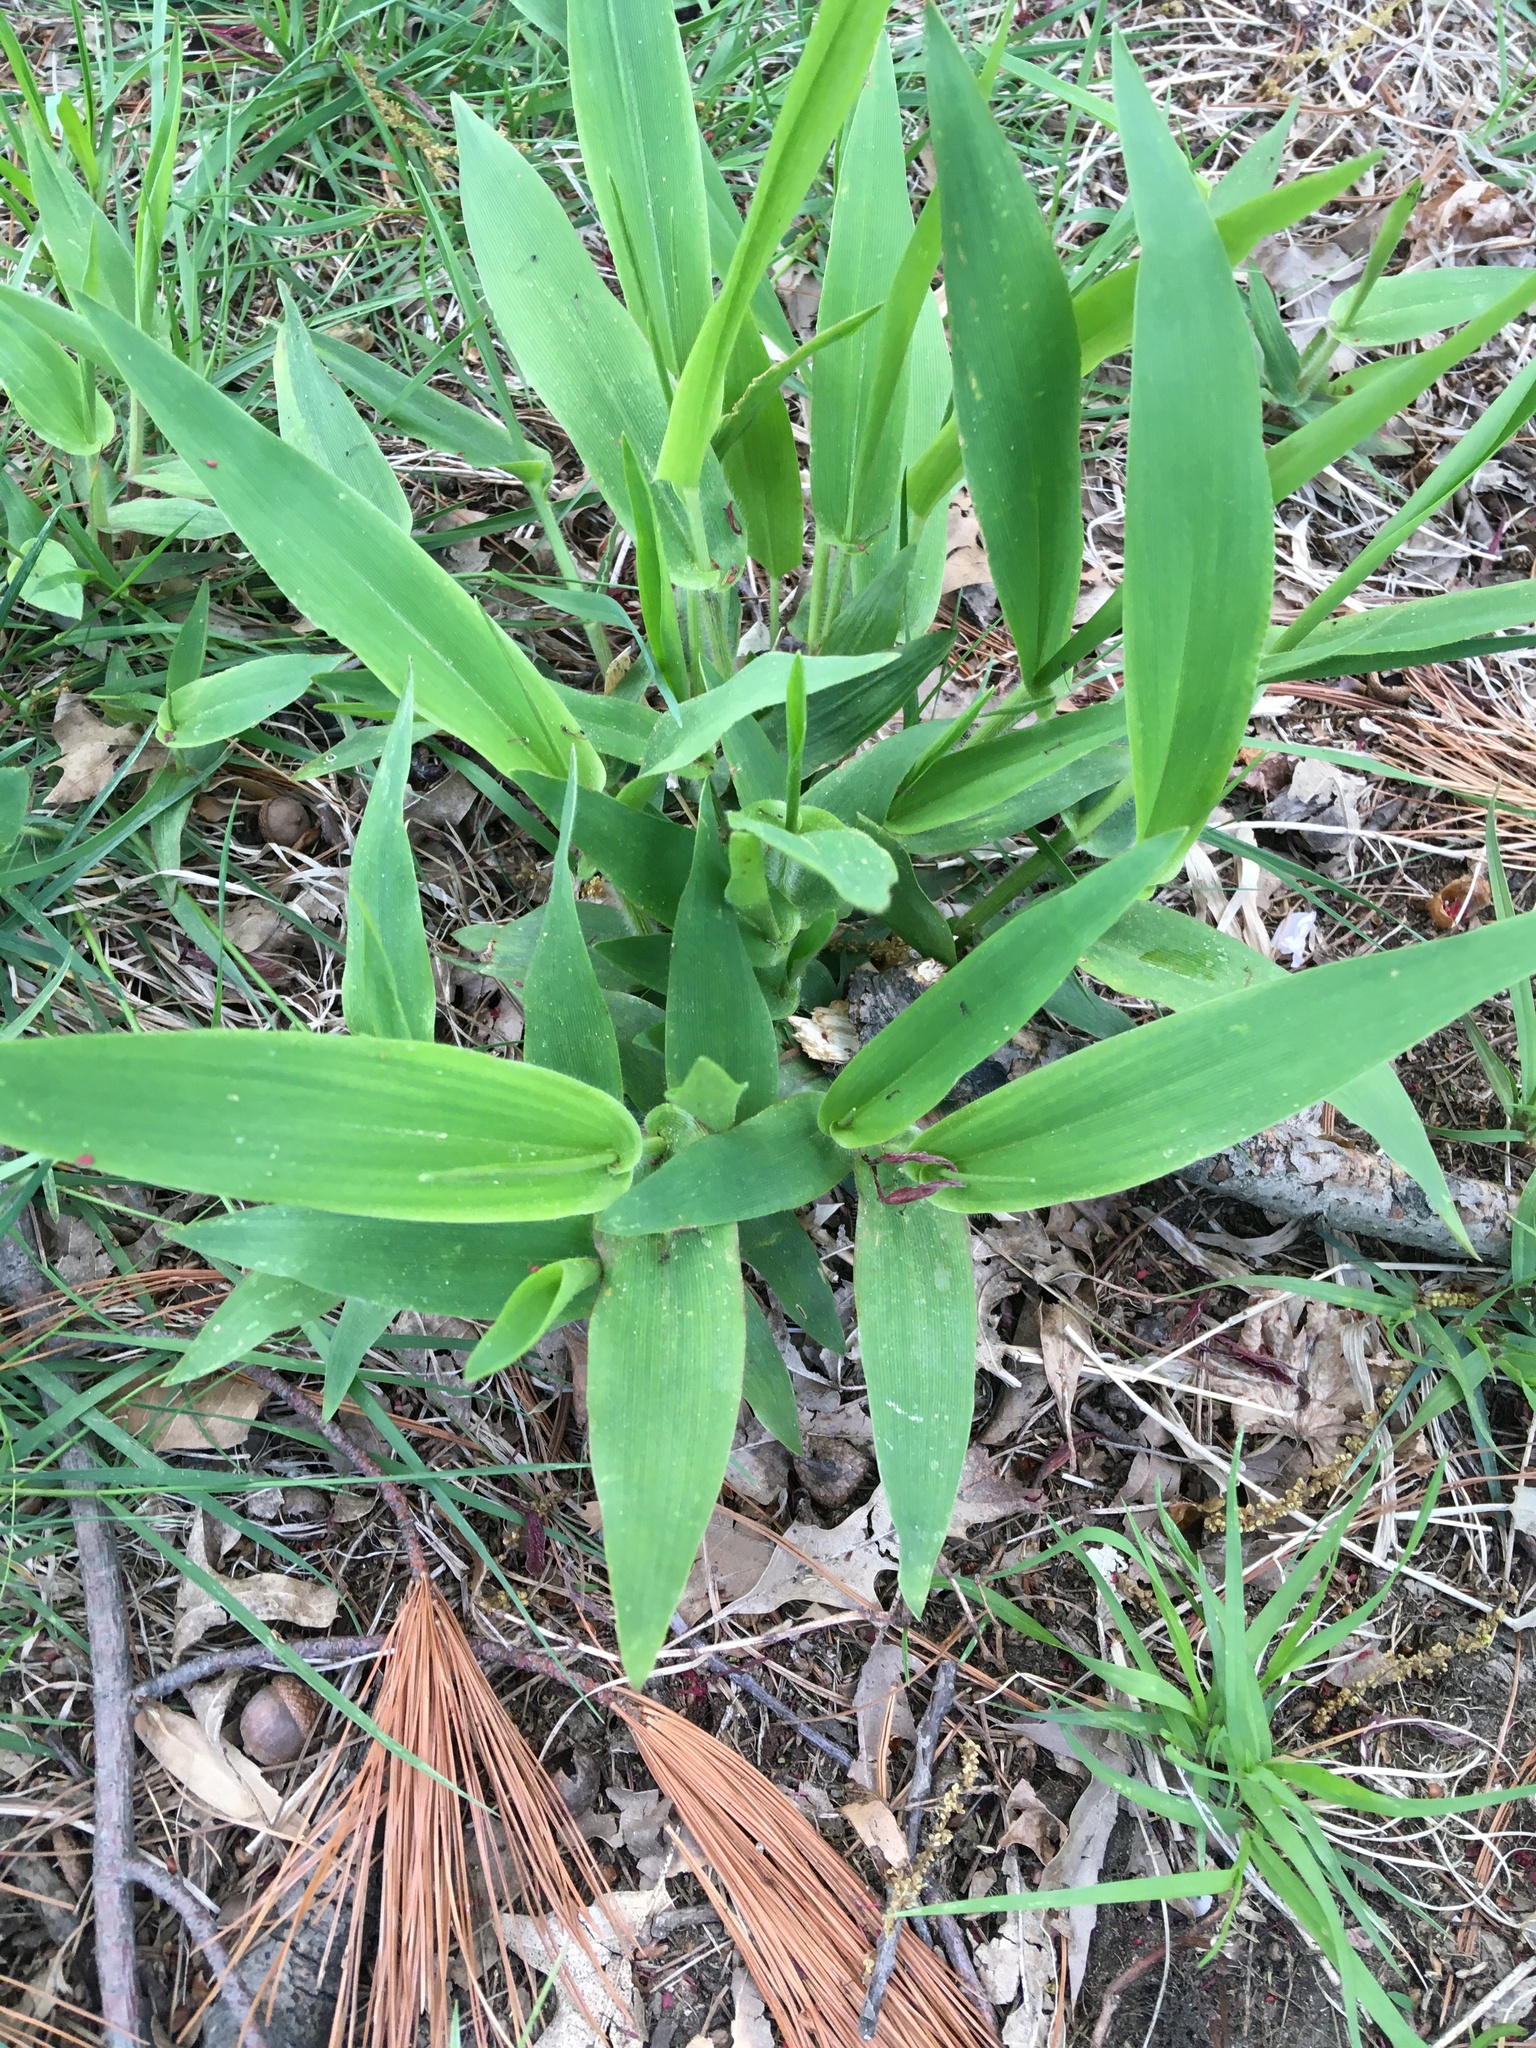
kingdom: Plantae
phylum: Tracheophyta
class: Liliopsida
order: Poales
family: Poaceae
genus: Dichanthelium
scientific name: Dichanthelium clandestinum
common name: Deer-tongue grass
